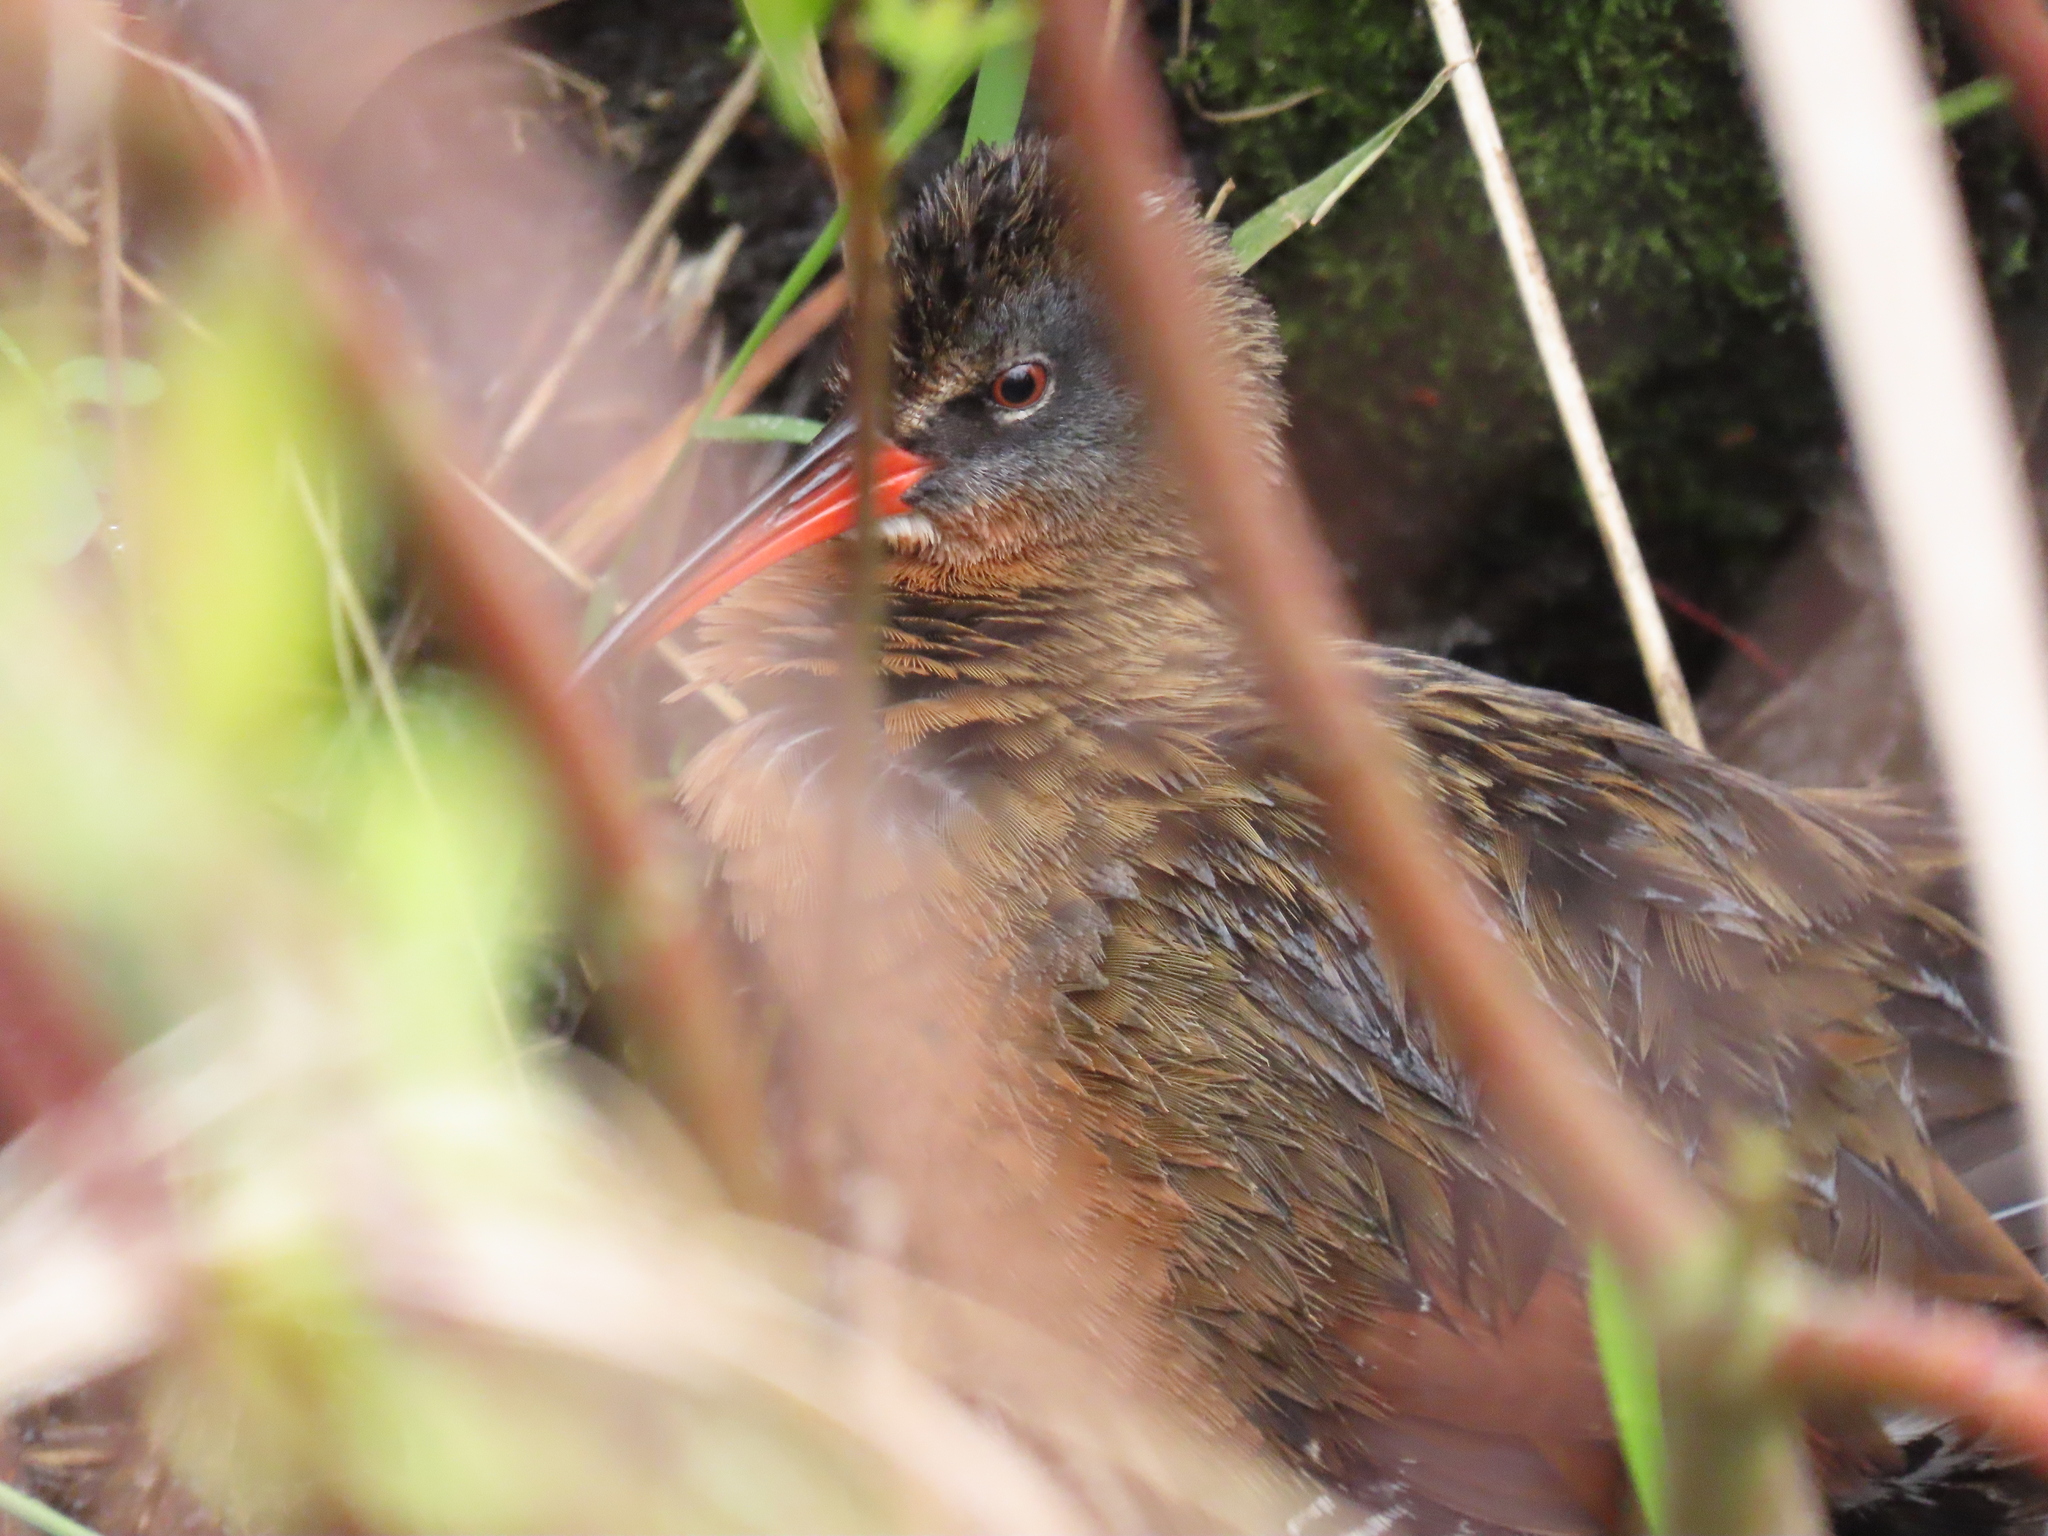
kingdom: Animalia
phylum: Chordata
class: Aves
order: Gruiformes
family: Rallidae
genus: Rallus
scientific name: Rallus limicola
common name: Virginia rail
